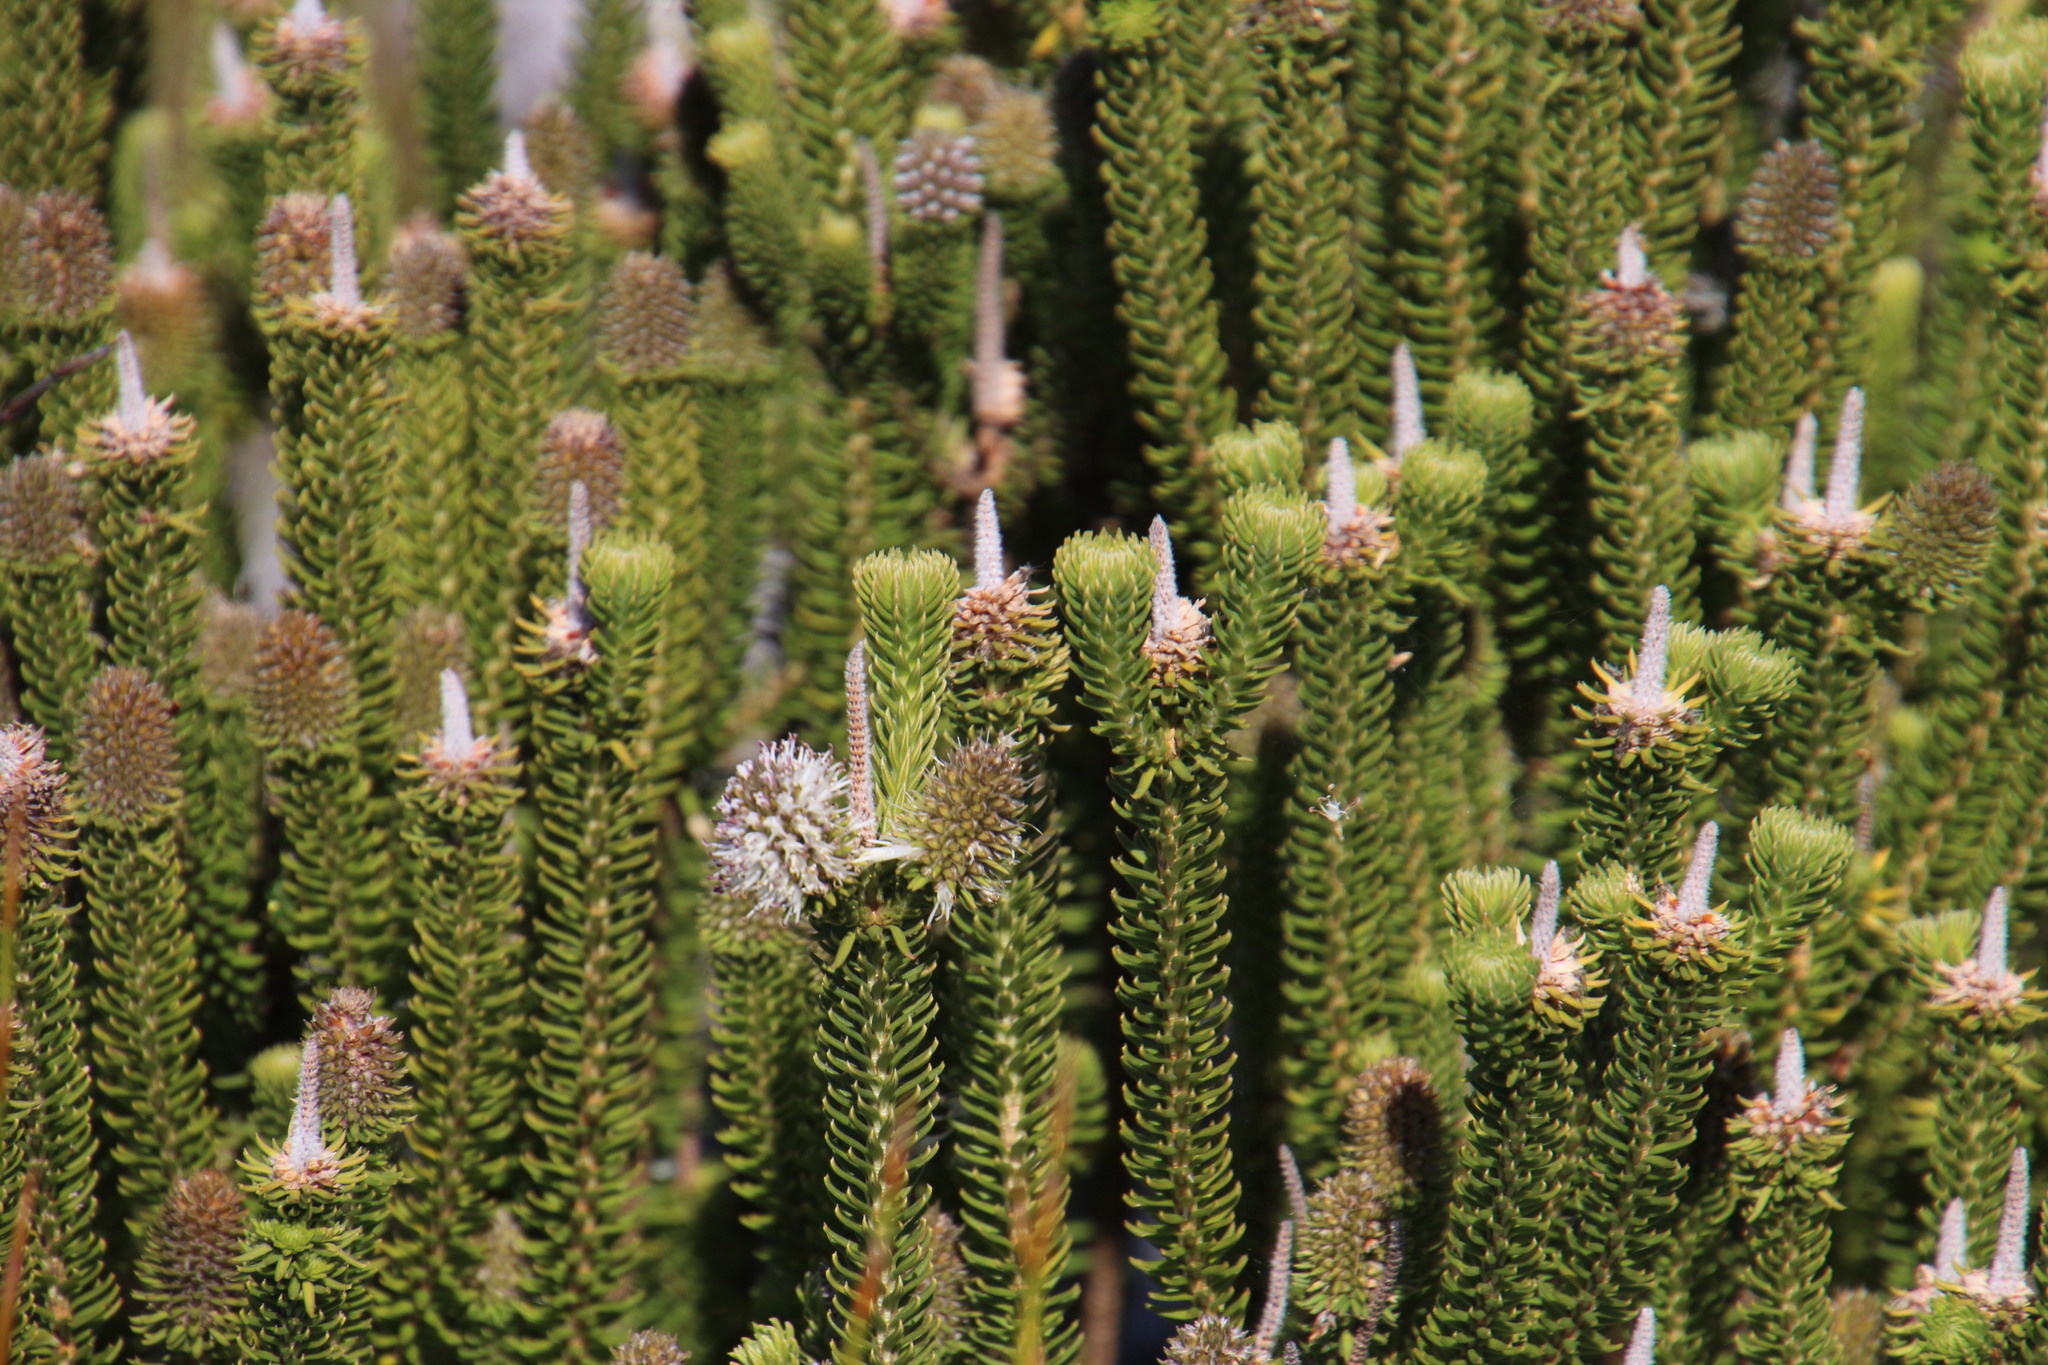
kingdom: Plantae
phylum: Tracheophyta
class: Magnoliopsida
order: Lamiales
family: Stilbaceae
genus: Stilbe
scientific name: Stilbe vestita
